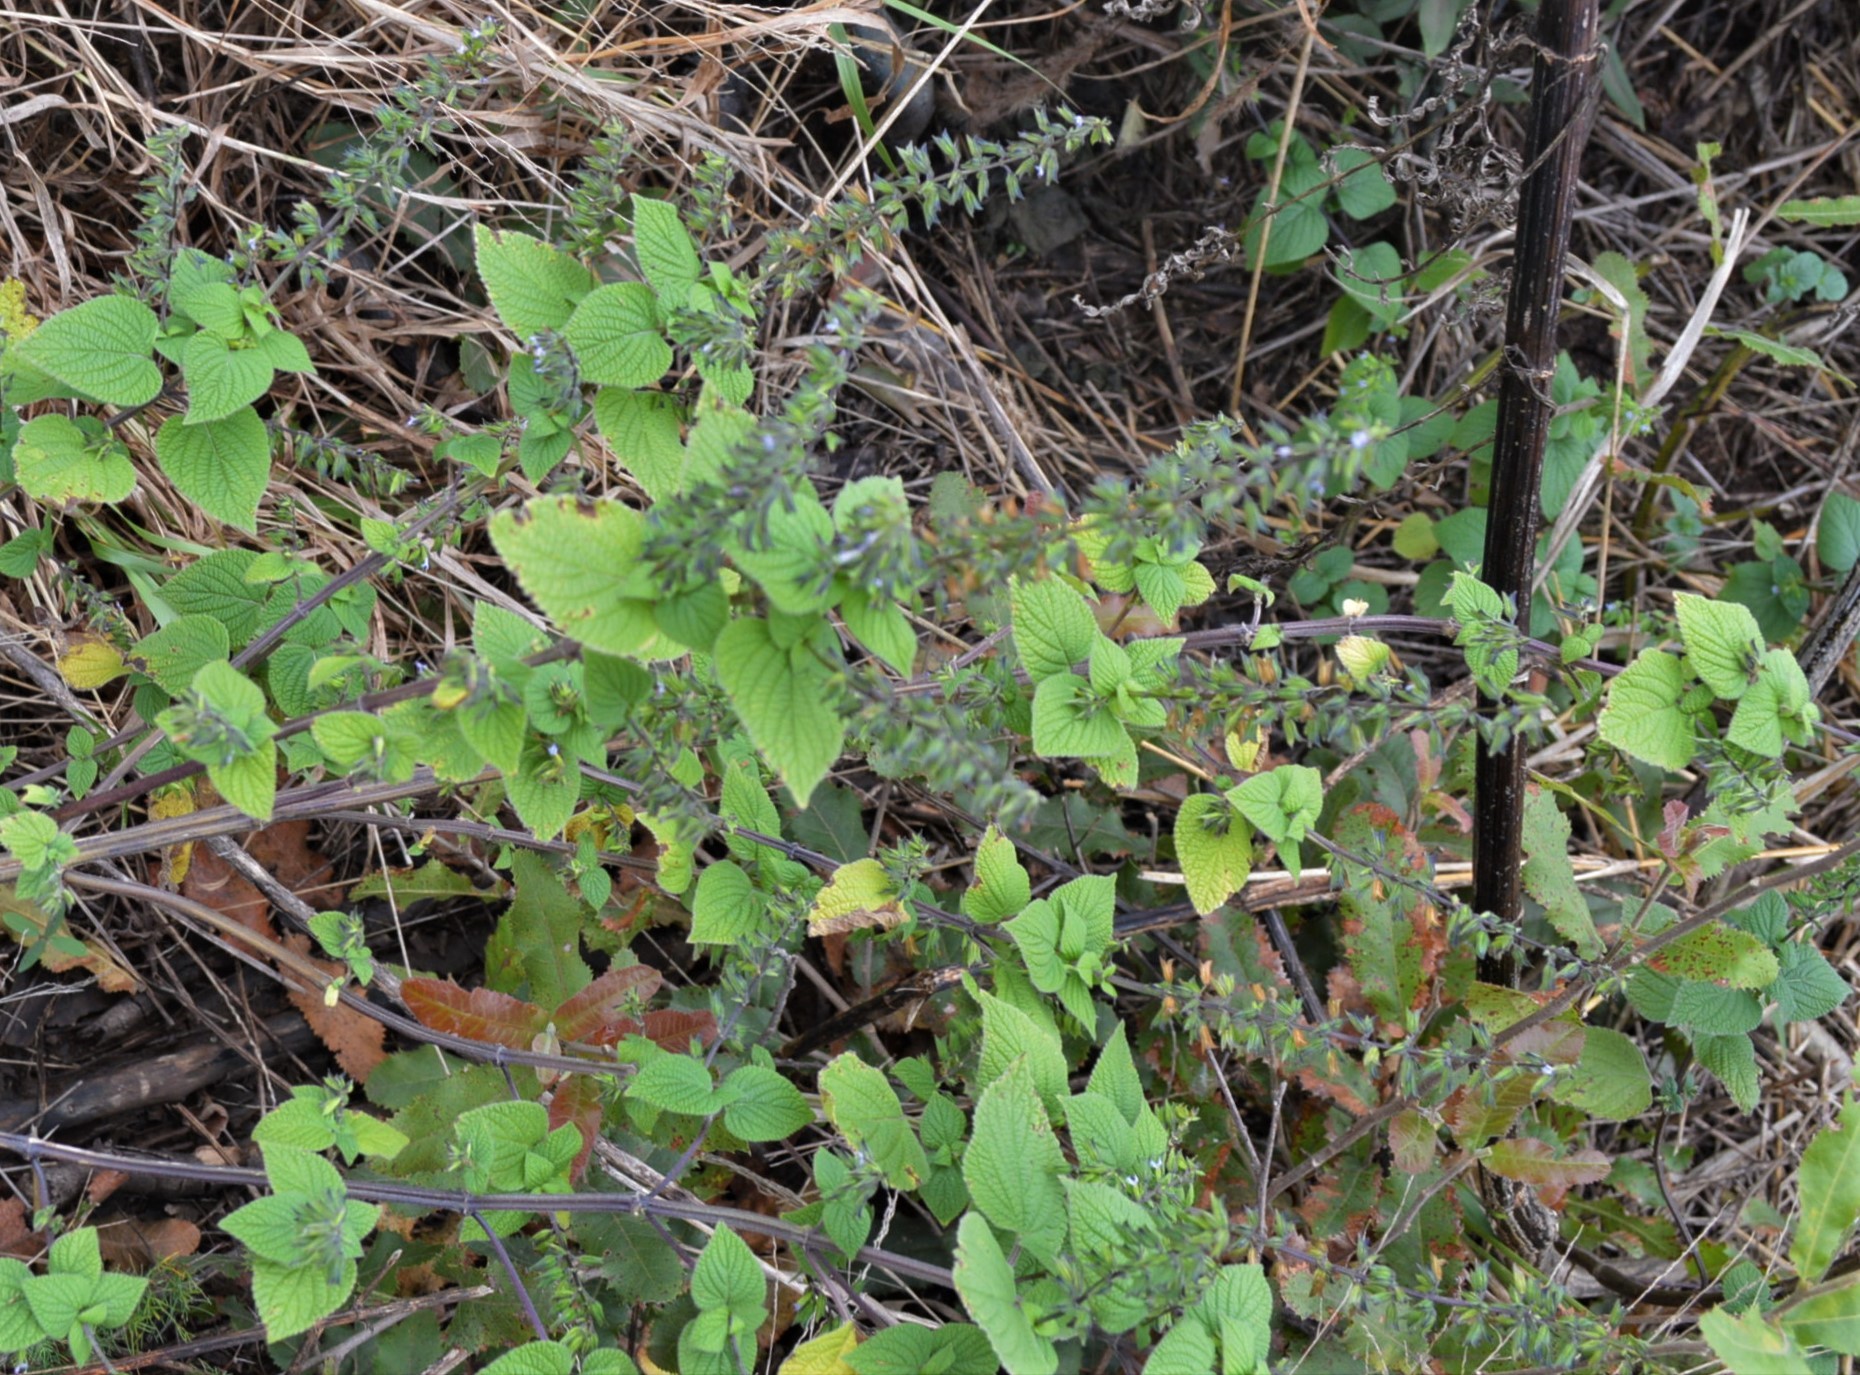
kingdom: Plantae
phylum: Tracheophyta
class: Magnoliopsida
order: Lamiales
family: Lamiaceae
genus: Salvia
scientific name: Salvia tiliifolia
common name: Lindenleaf sage
